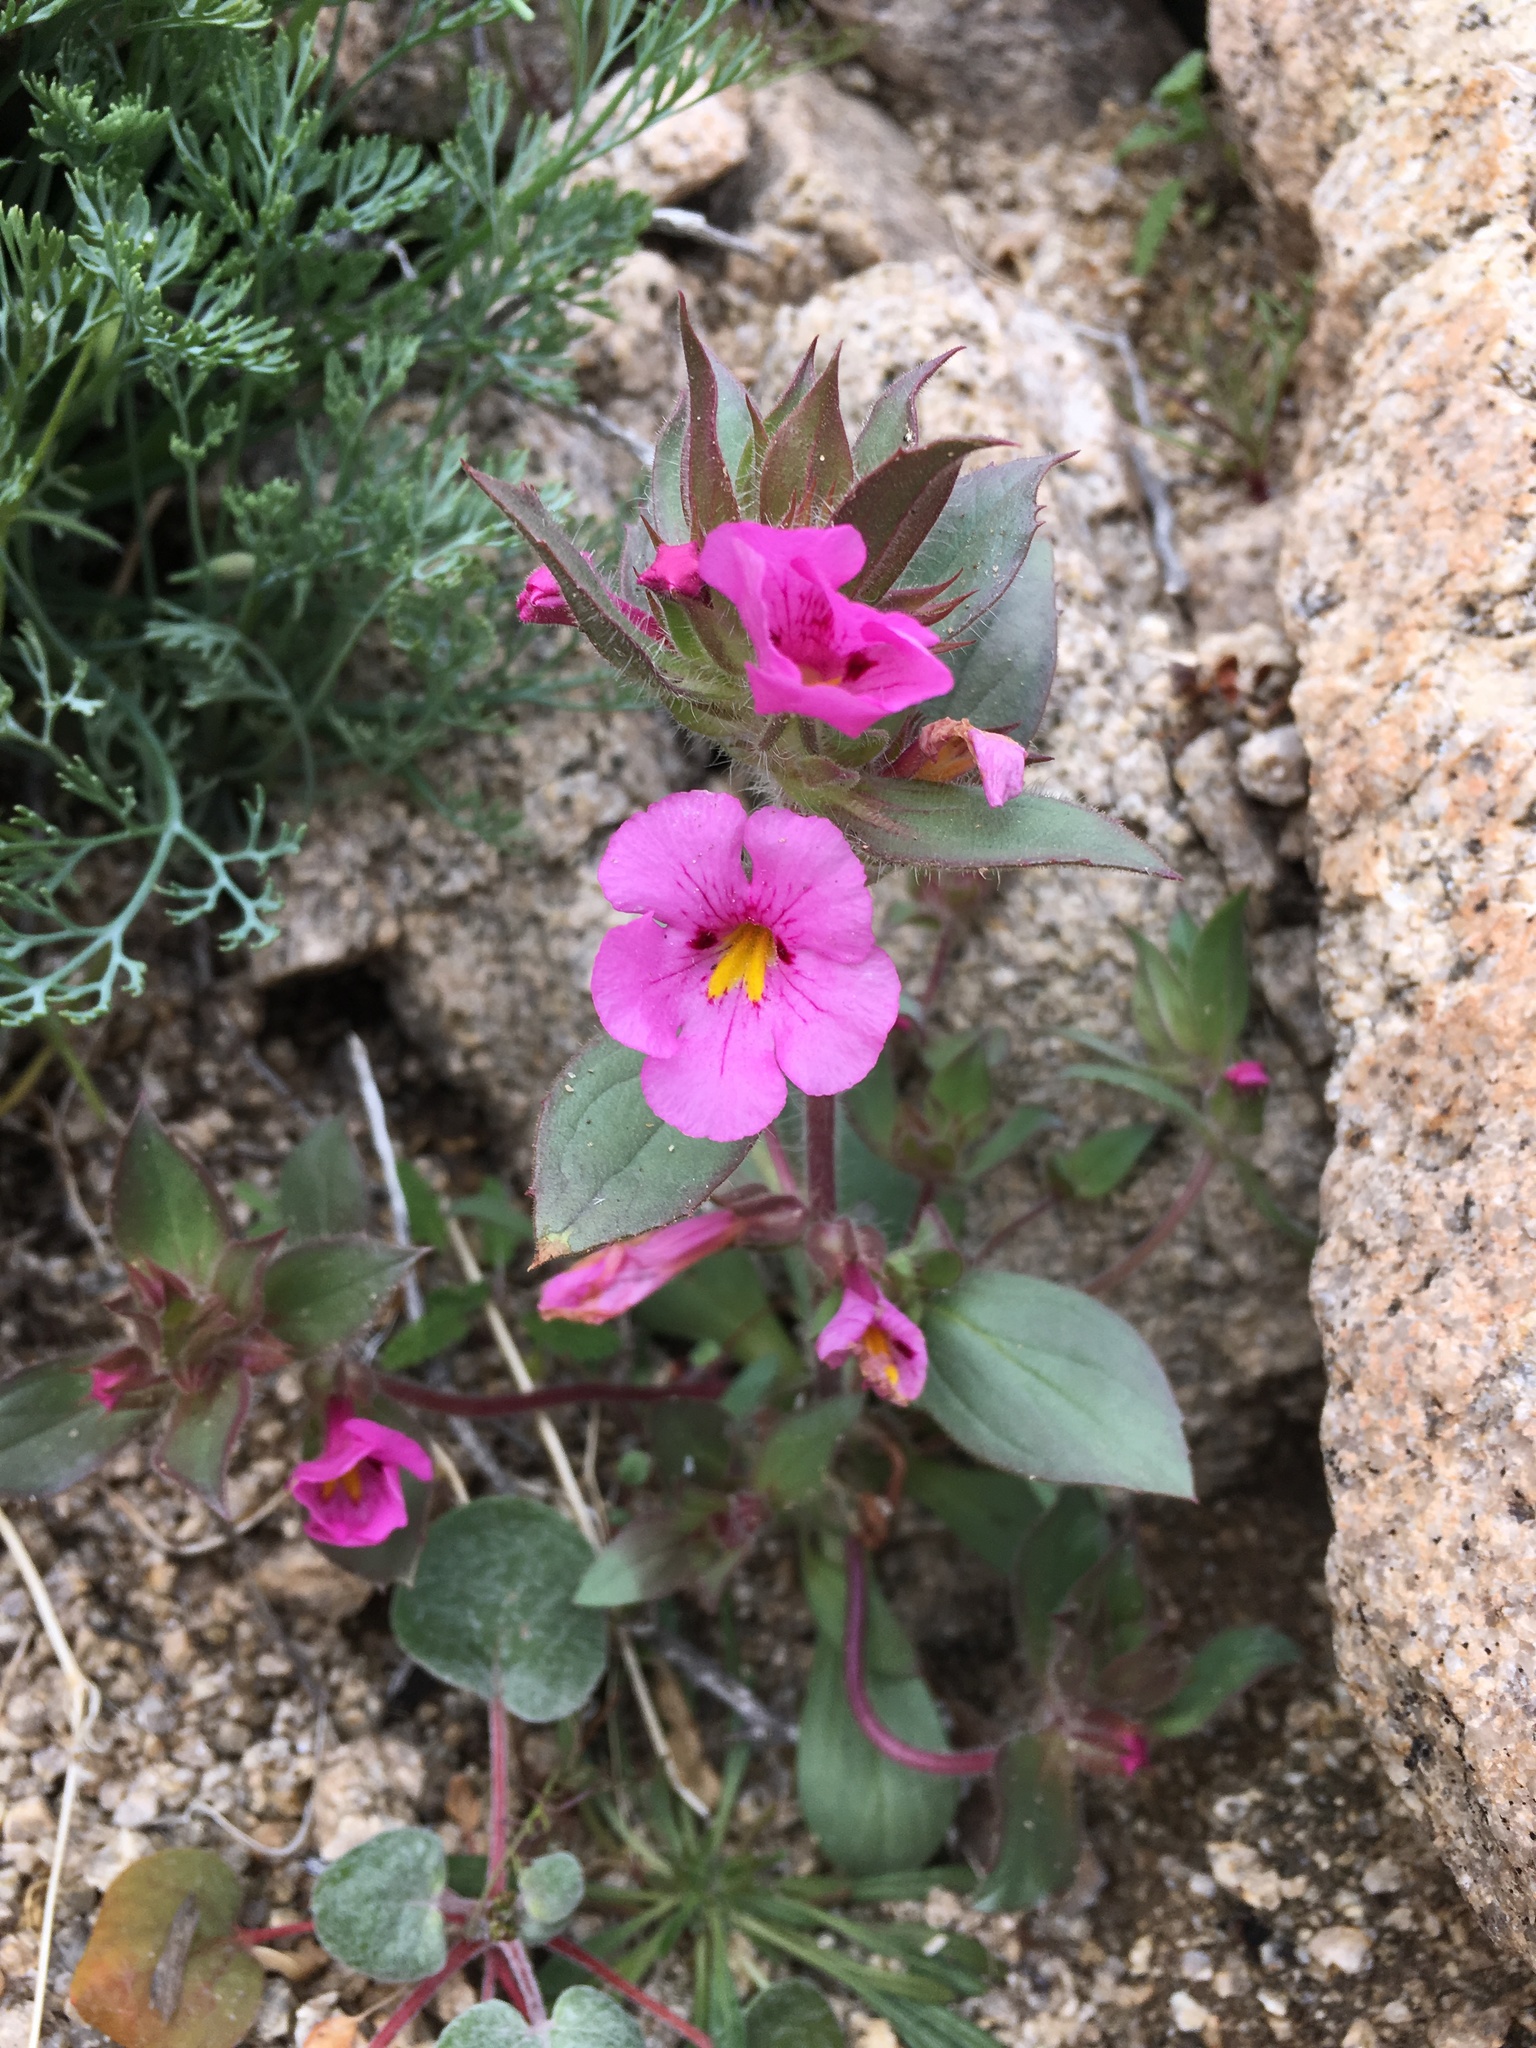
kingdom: Plantae
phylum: Tracheophyta
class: Magnoliopsida
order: Lamiales
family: Phrymaceae
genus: Diplacus
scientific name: Diplacus bigelovii
